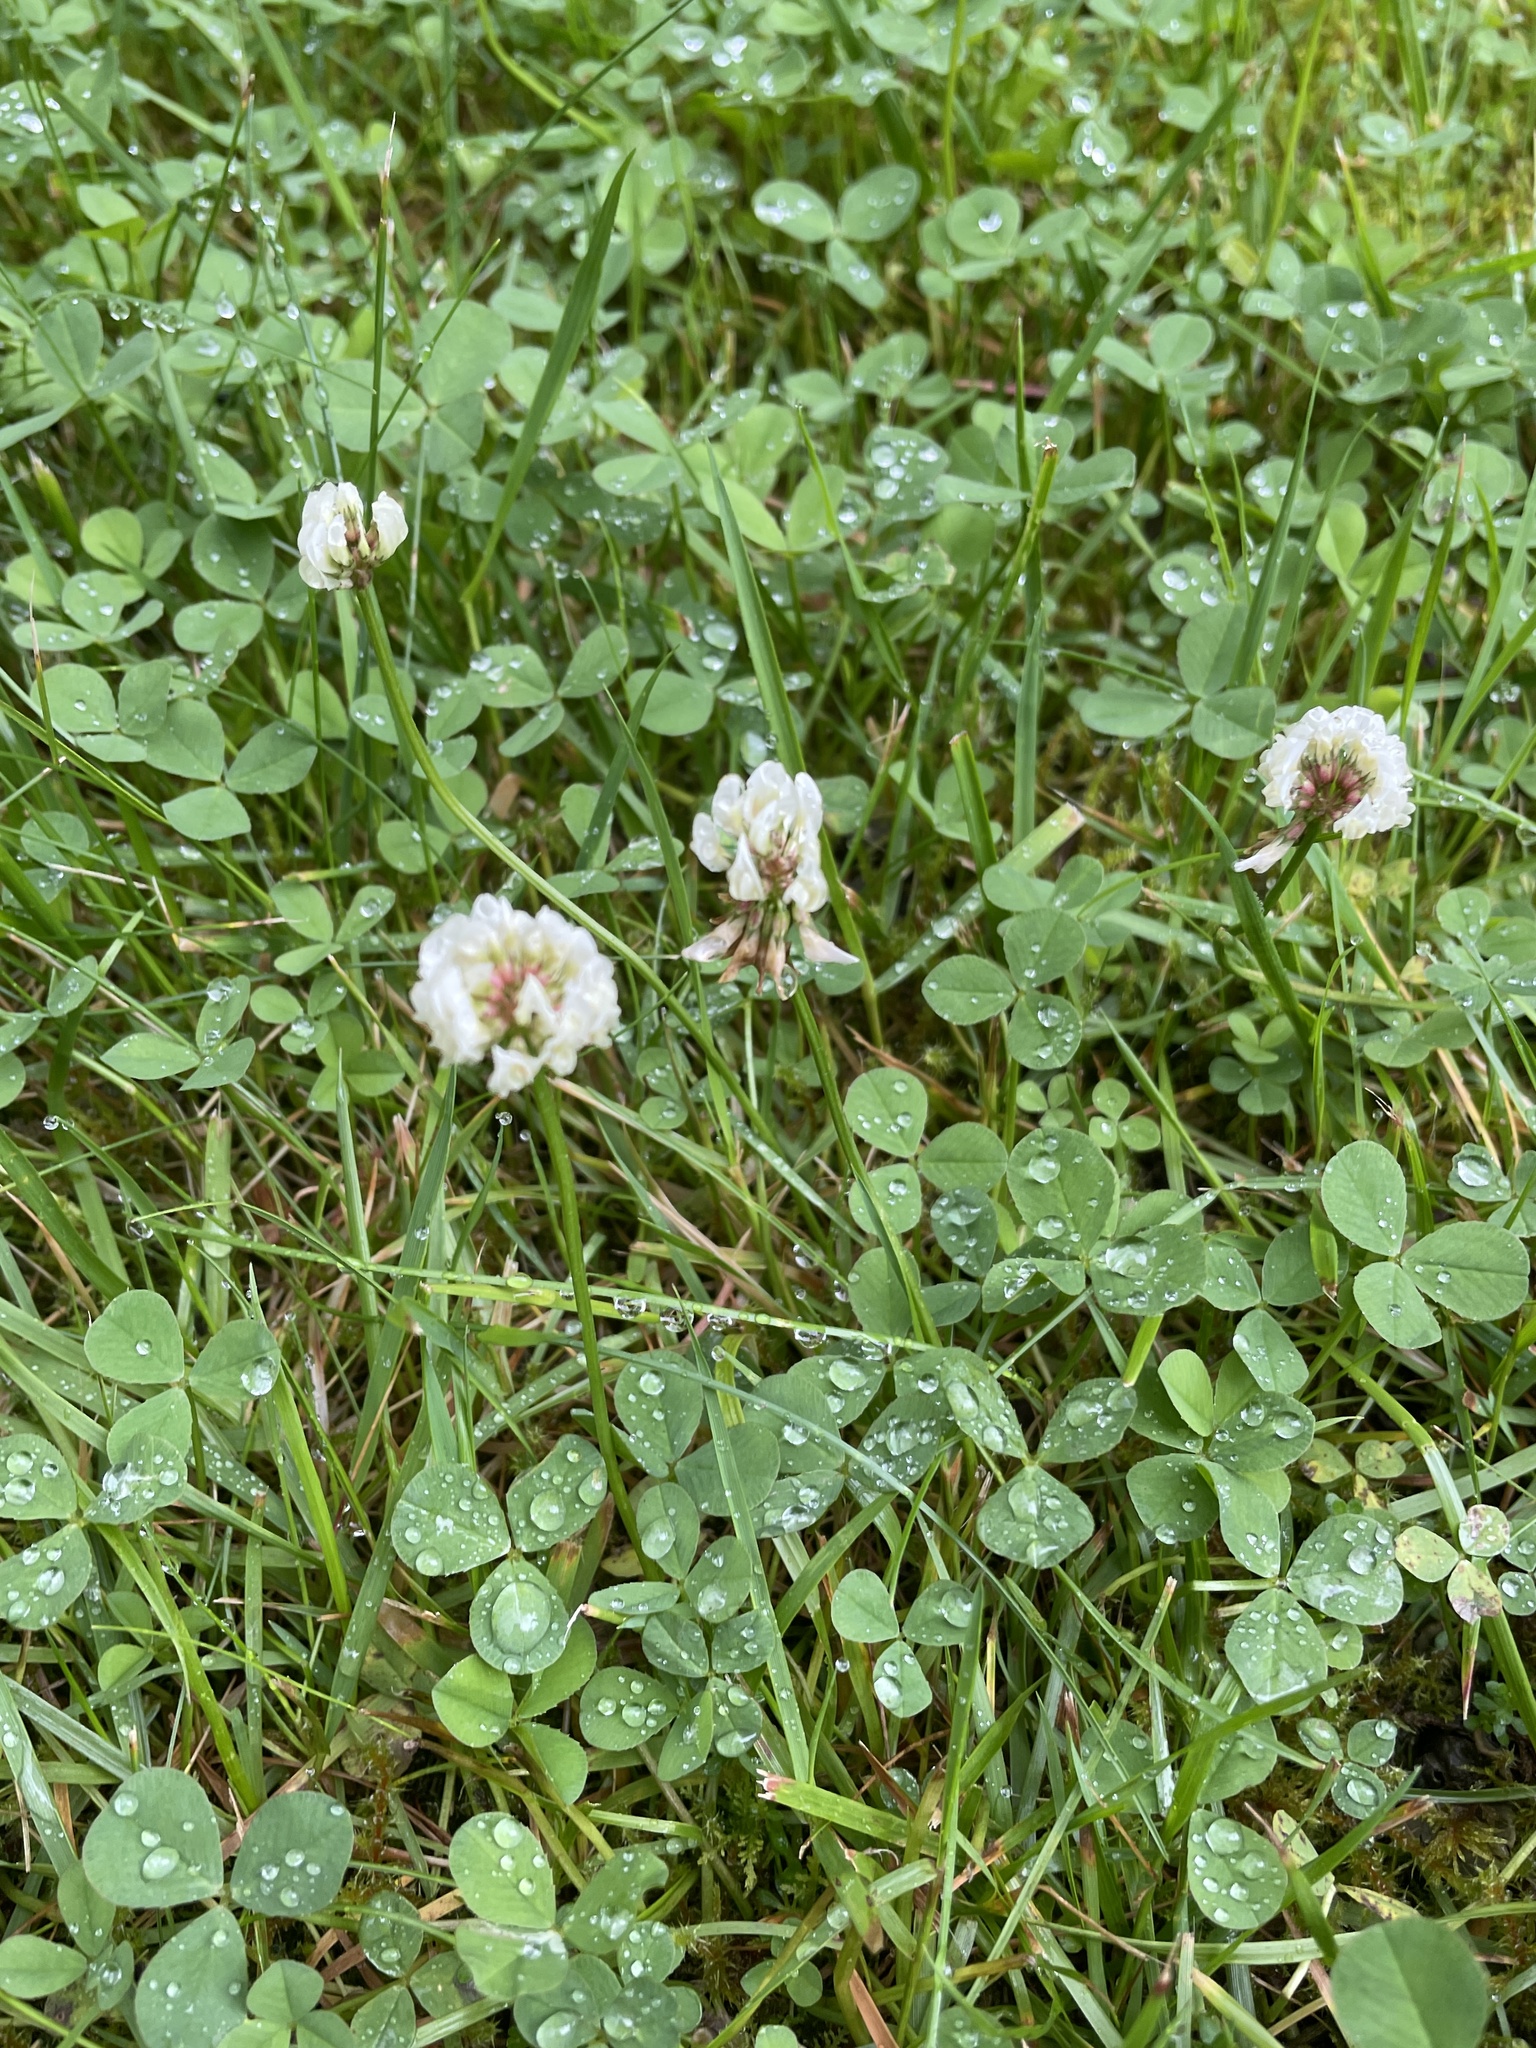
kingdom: Plantae
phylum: Tracheophyta
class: Magnoliopsida
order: Fabales
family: Fabaceae
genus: Trifolium
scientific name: Trifolium repens
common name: White clover
